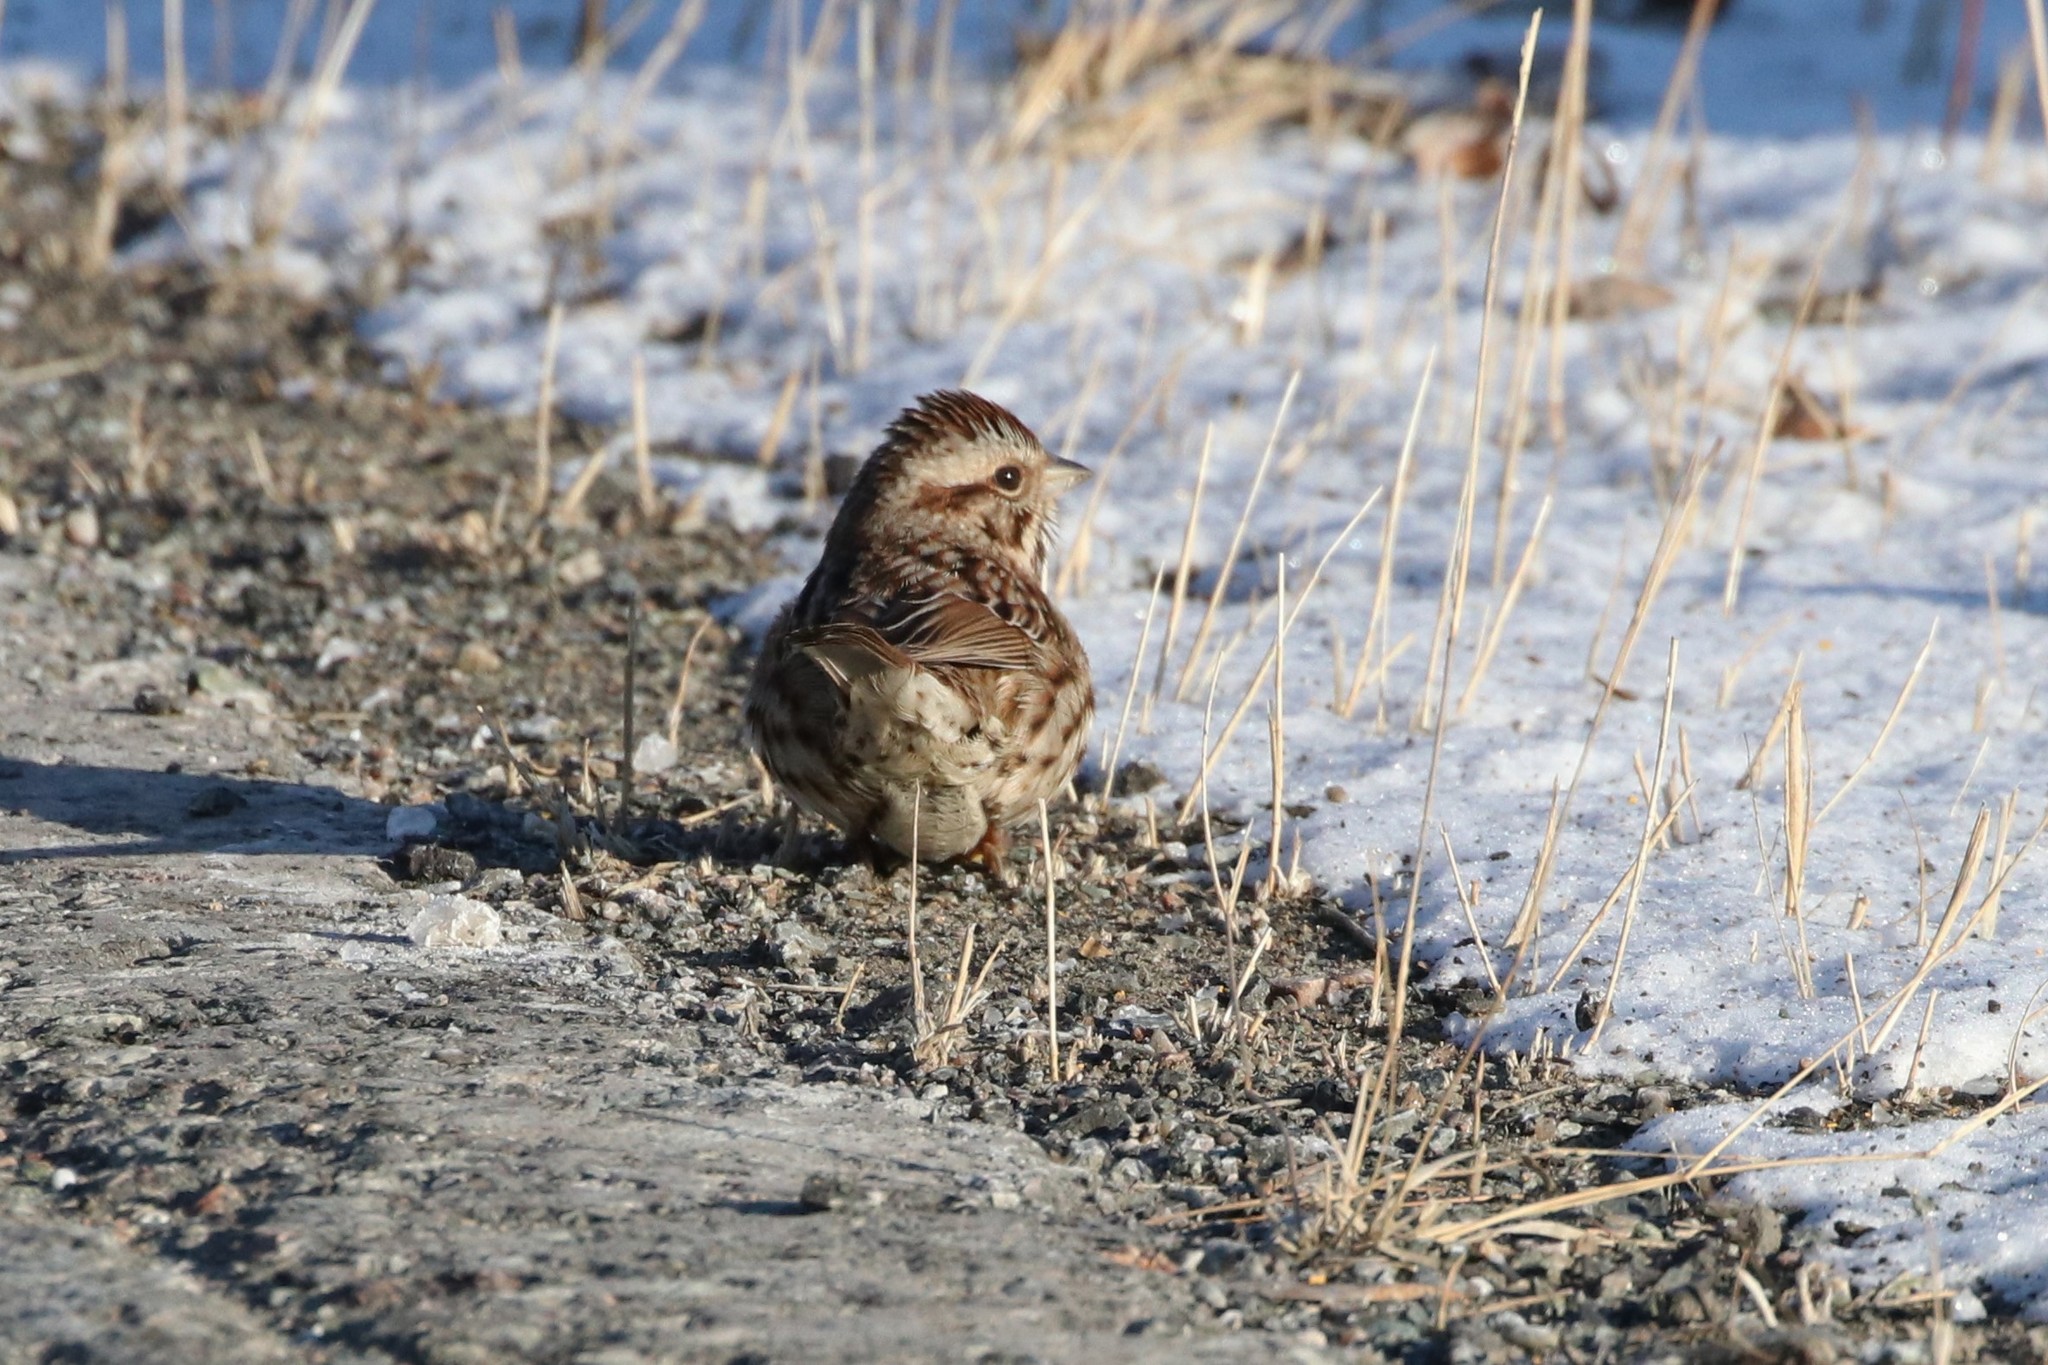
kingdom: Animalia
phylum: Chordata
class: Aves
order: Passeriformes
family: Passerellidae
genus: Melospiza
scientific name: Melospiza melodia
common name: Song sparrow
